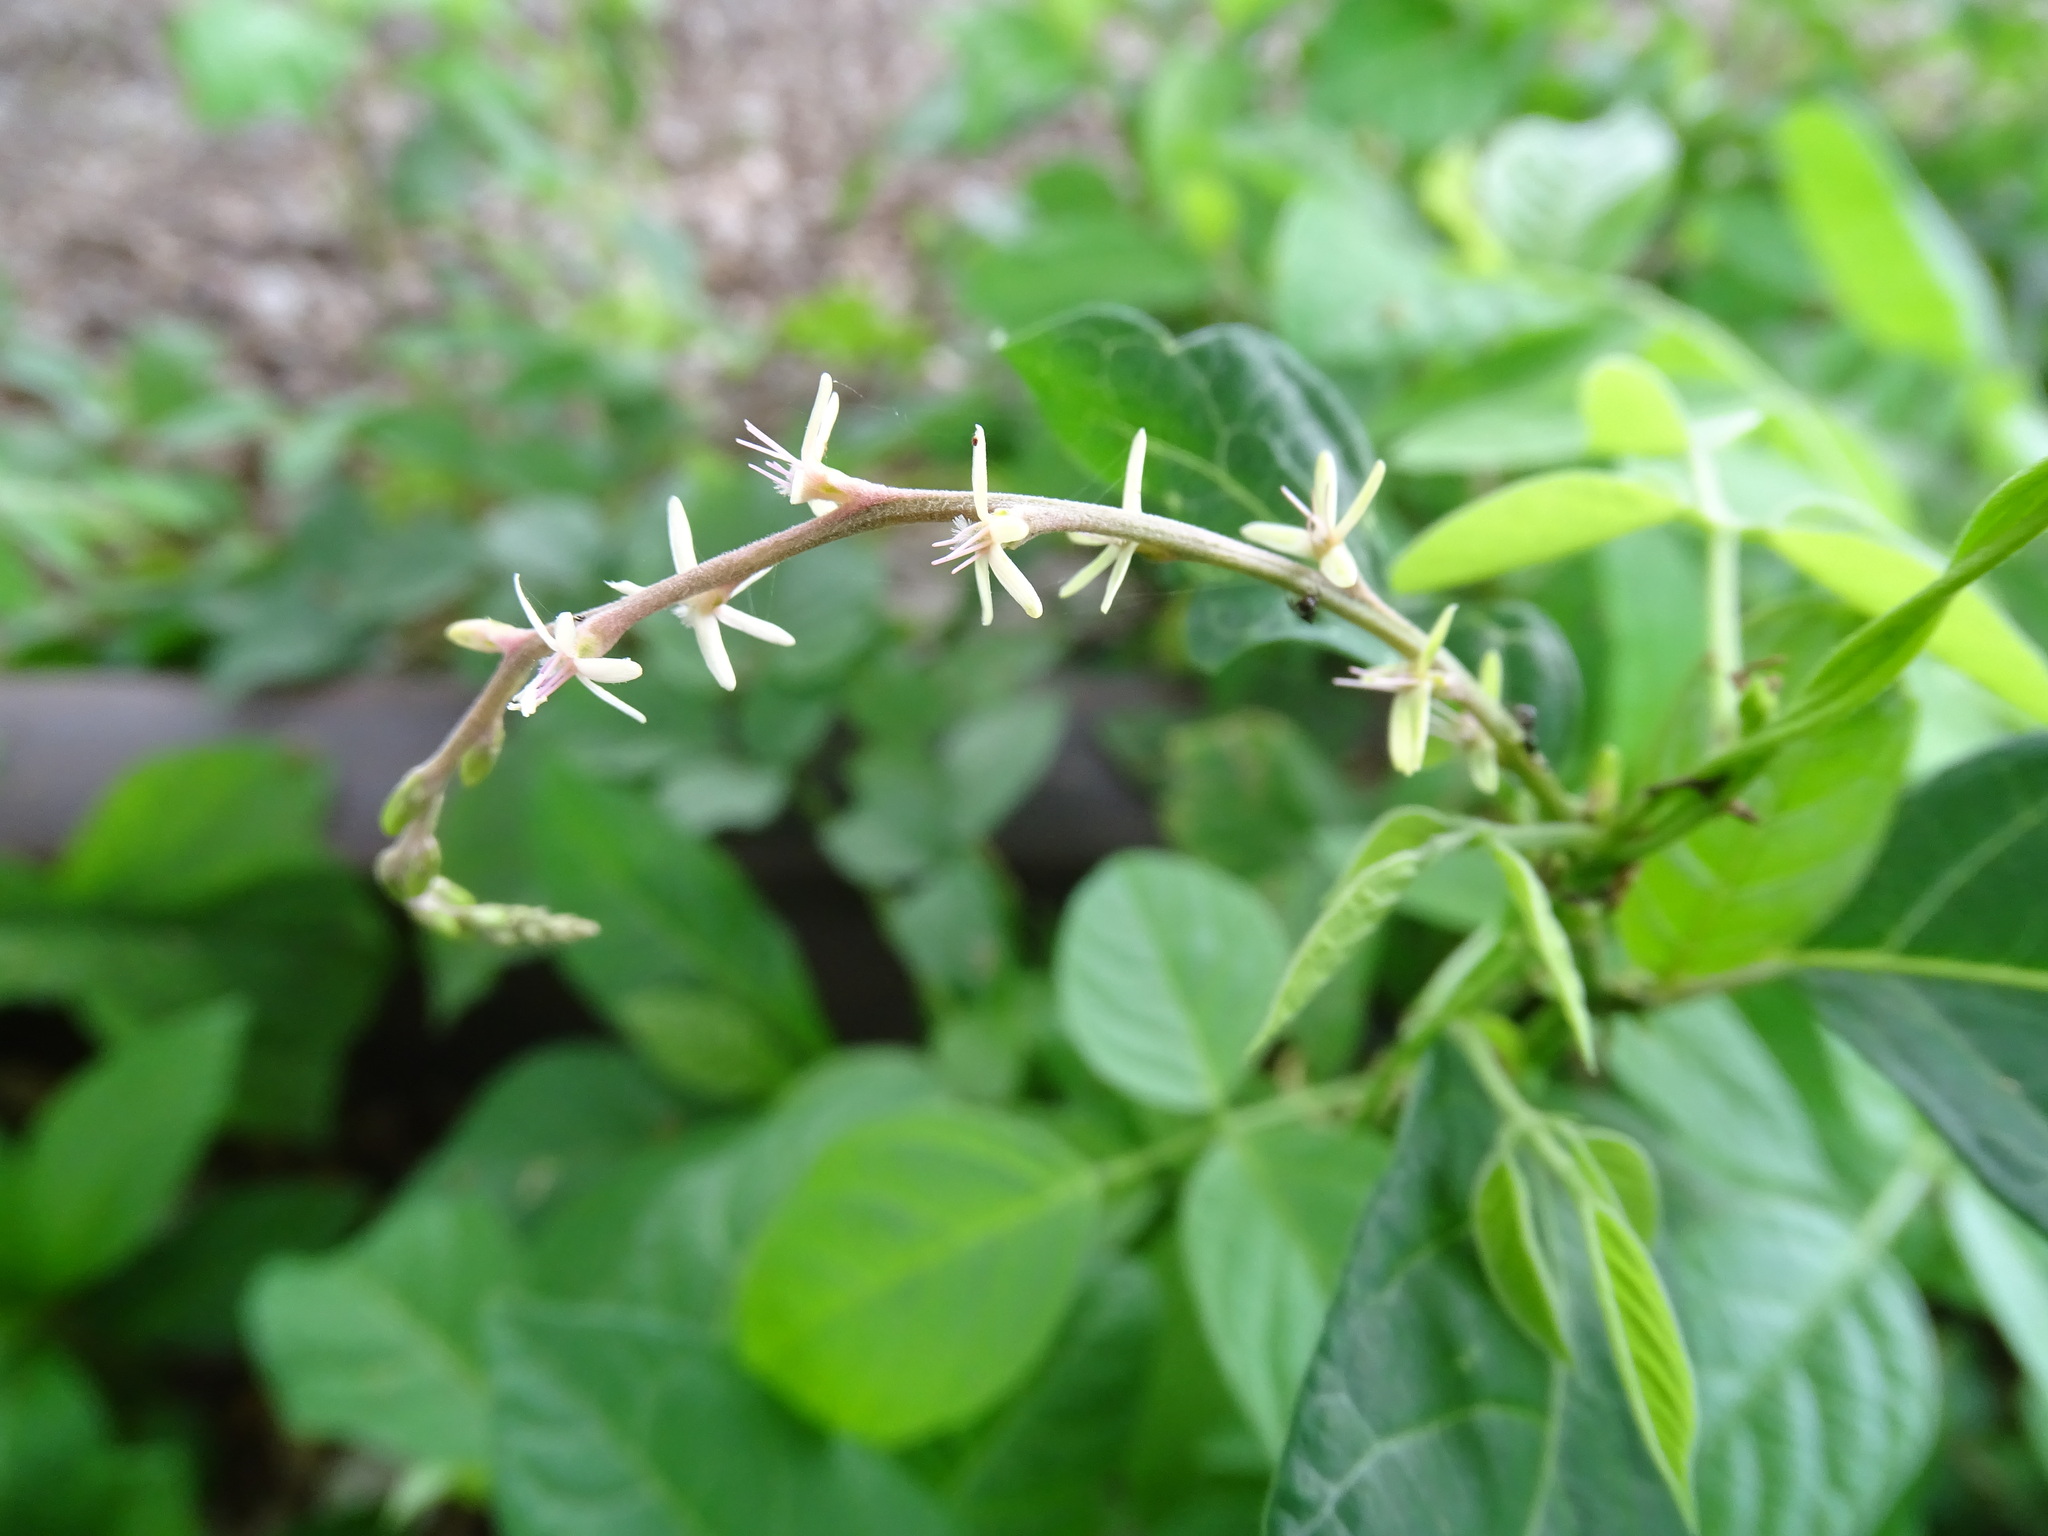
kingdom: Plantae
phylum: Tracheophyta
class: Magnoliopsida
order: Caryophyllales
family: Phytolaccaceae
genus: Petiveria
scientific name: Petiveria alliacea
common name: Garlicweed
